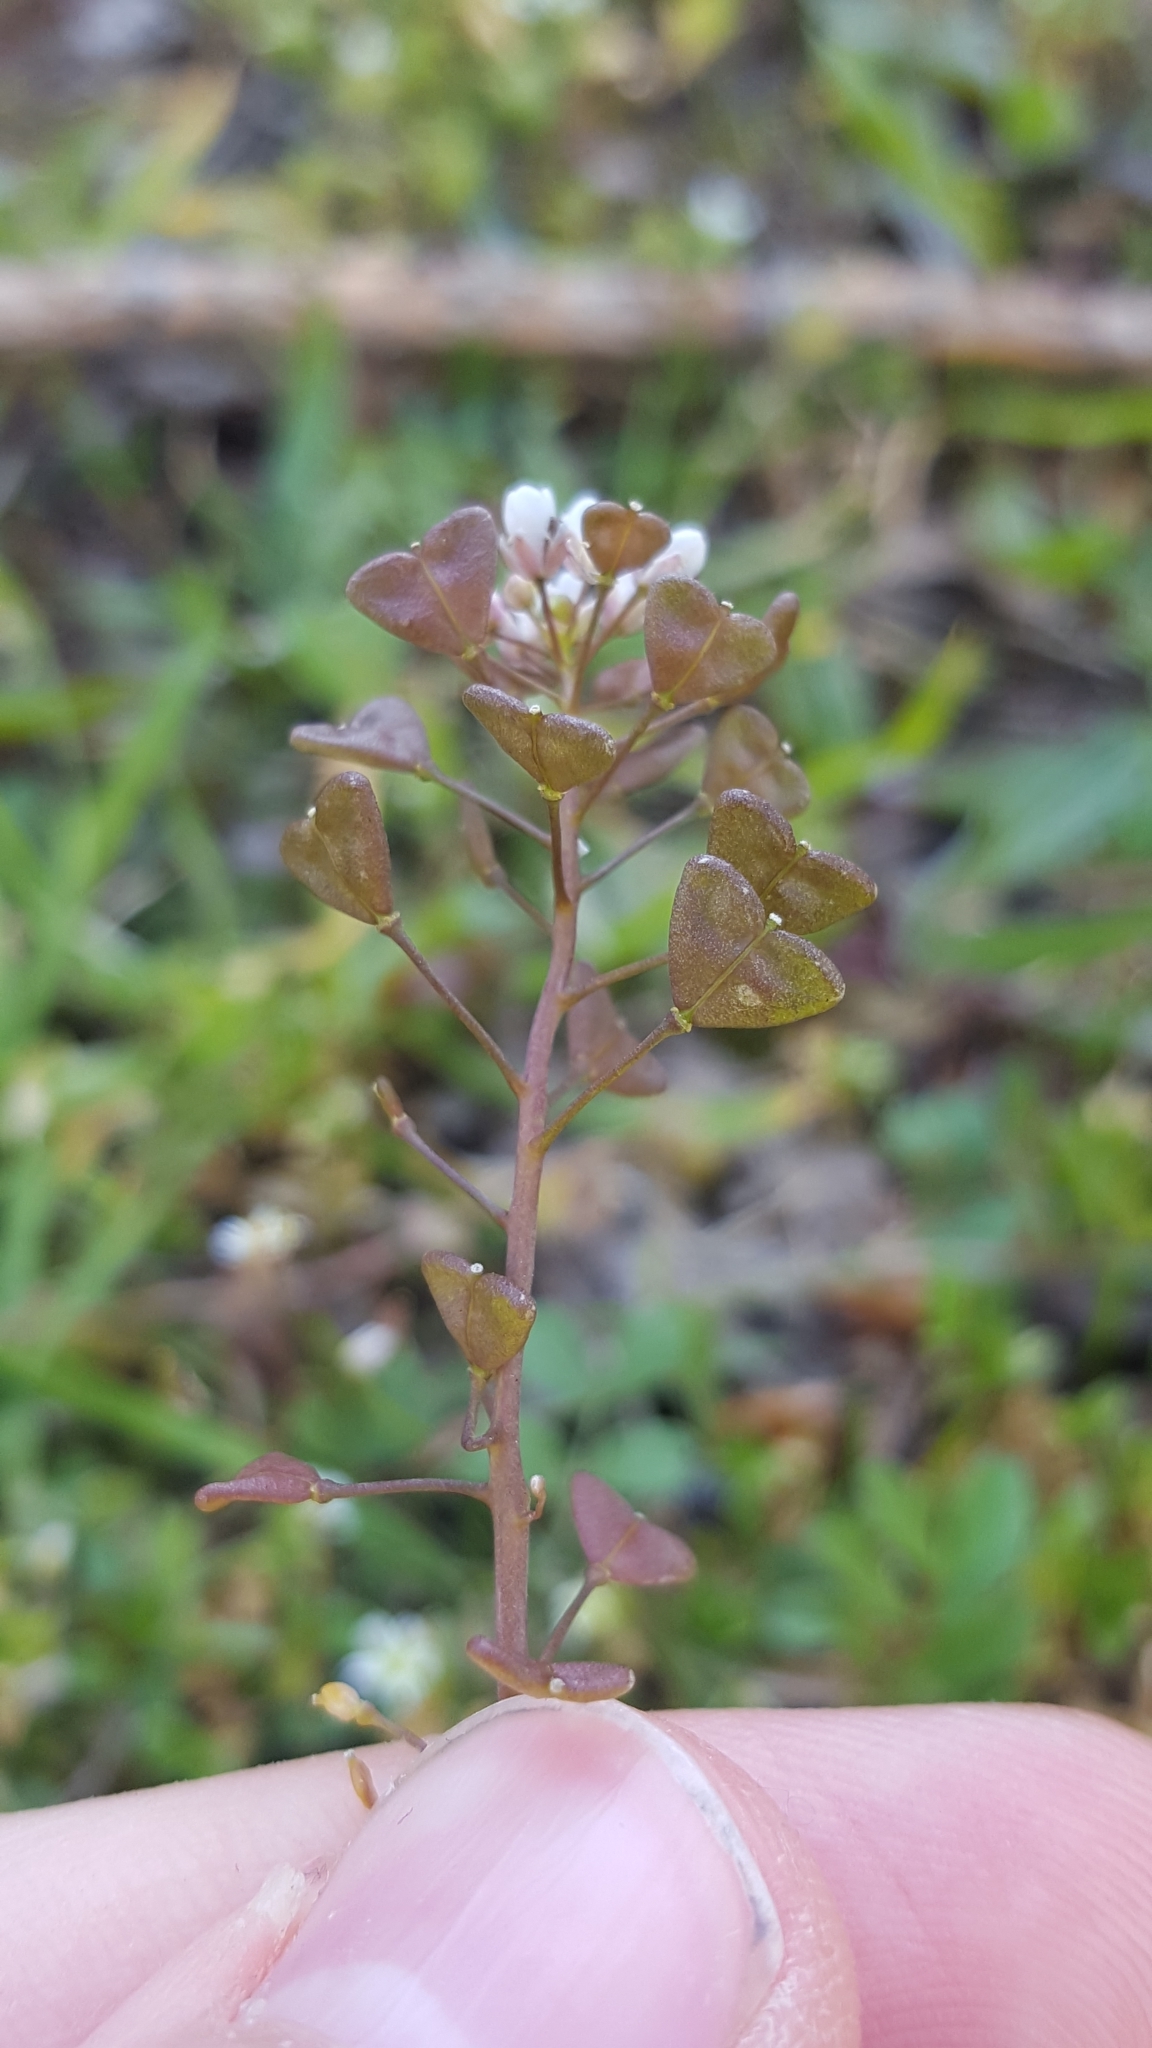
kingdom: Plantae
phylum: Tracheophyta
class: Magnoliopsida
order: Brassicales
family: Brassicaceae
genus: Capsella
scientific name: Capsella bursa-pastoris
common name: Shepherd's purse
